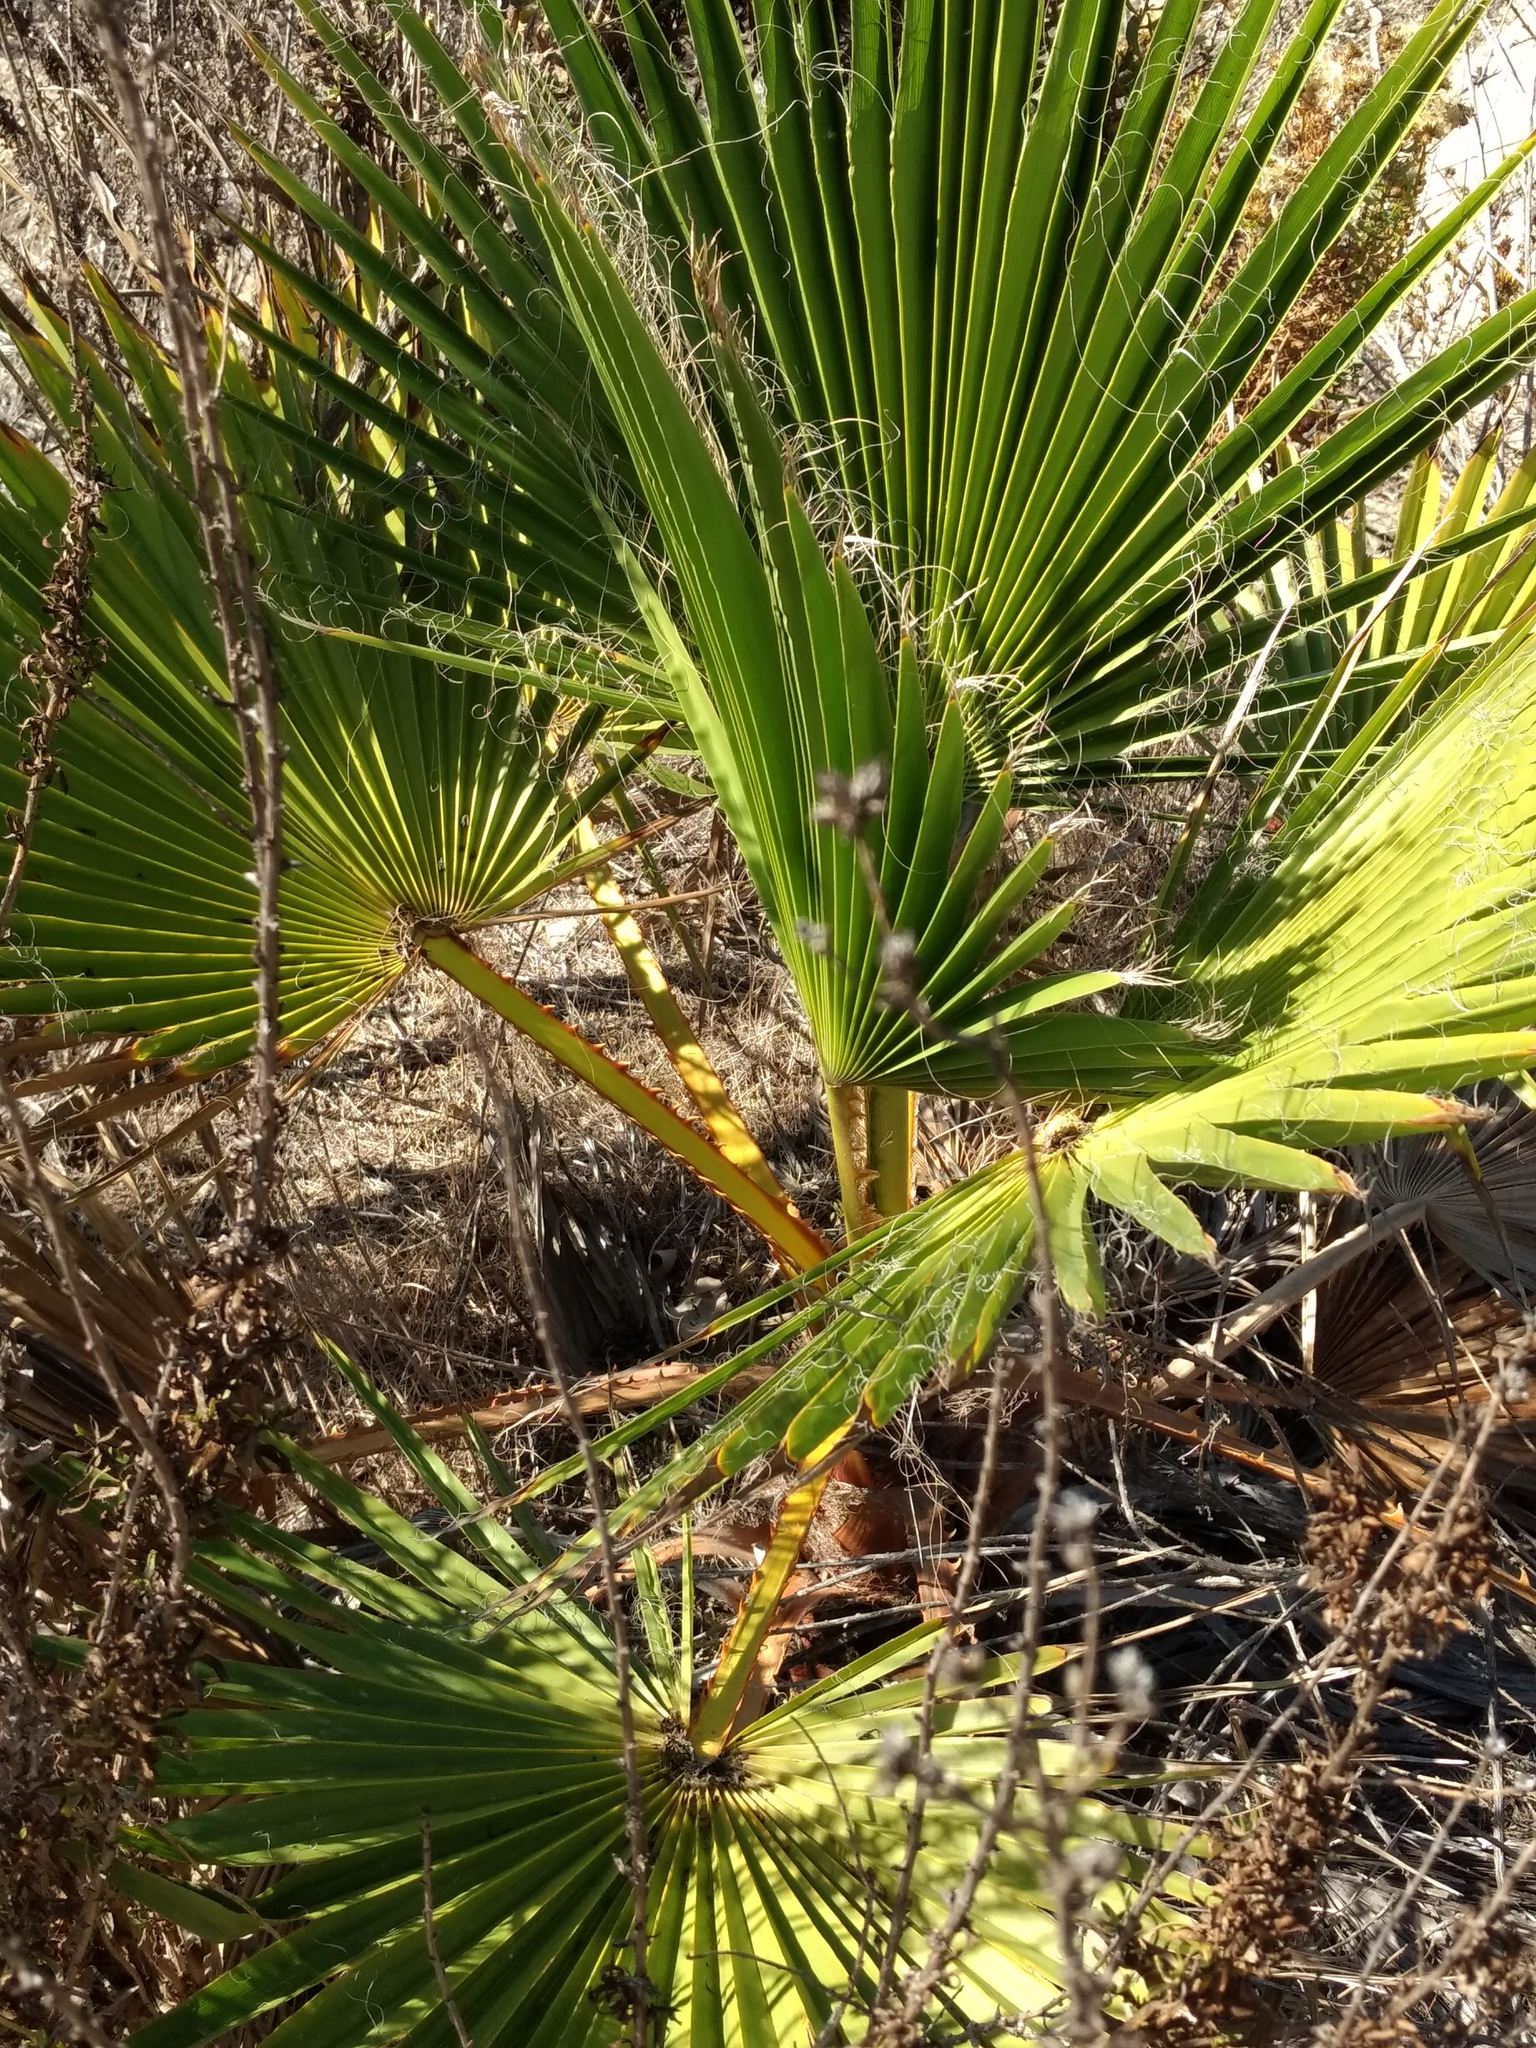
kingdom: Plantae
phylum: Tracheophyta
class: Liliopsida
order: Arecales
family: Arecaceae
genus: Washingtonia
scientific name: Washingtonia robusta
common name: Mexican fan palm
